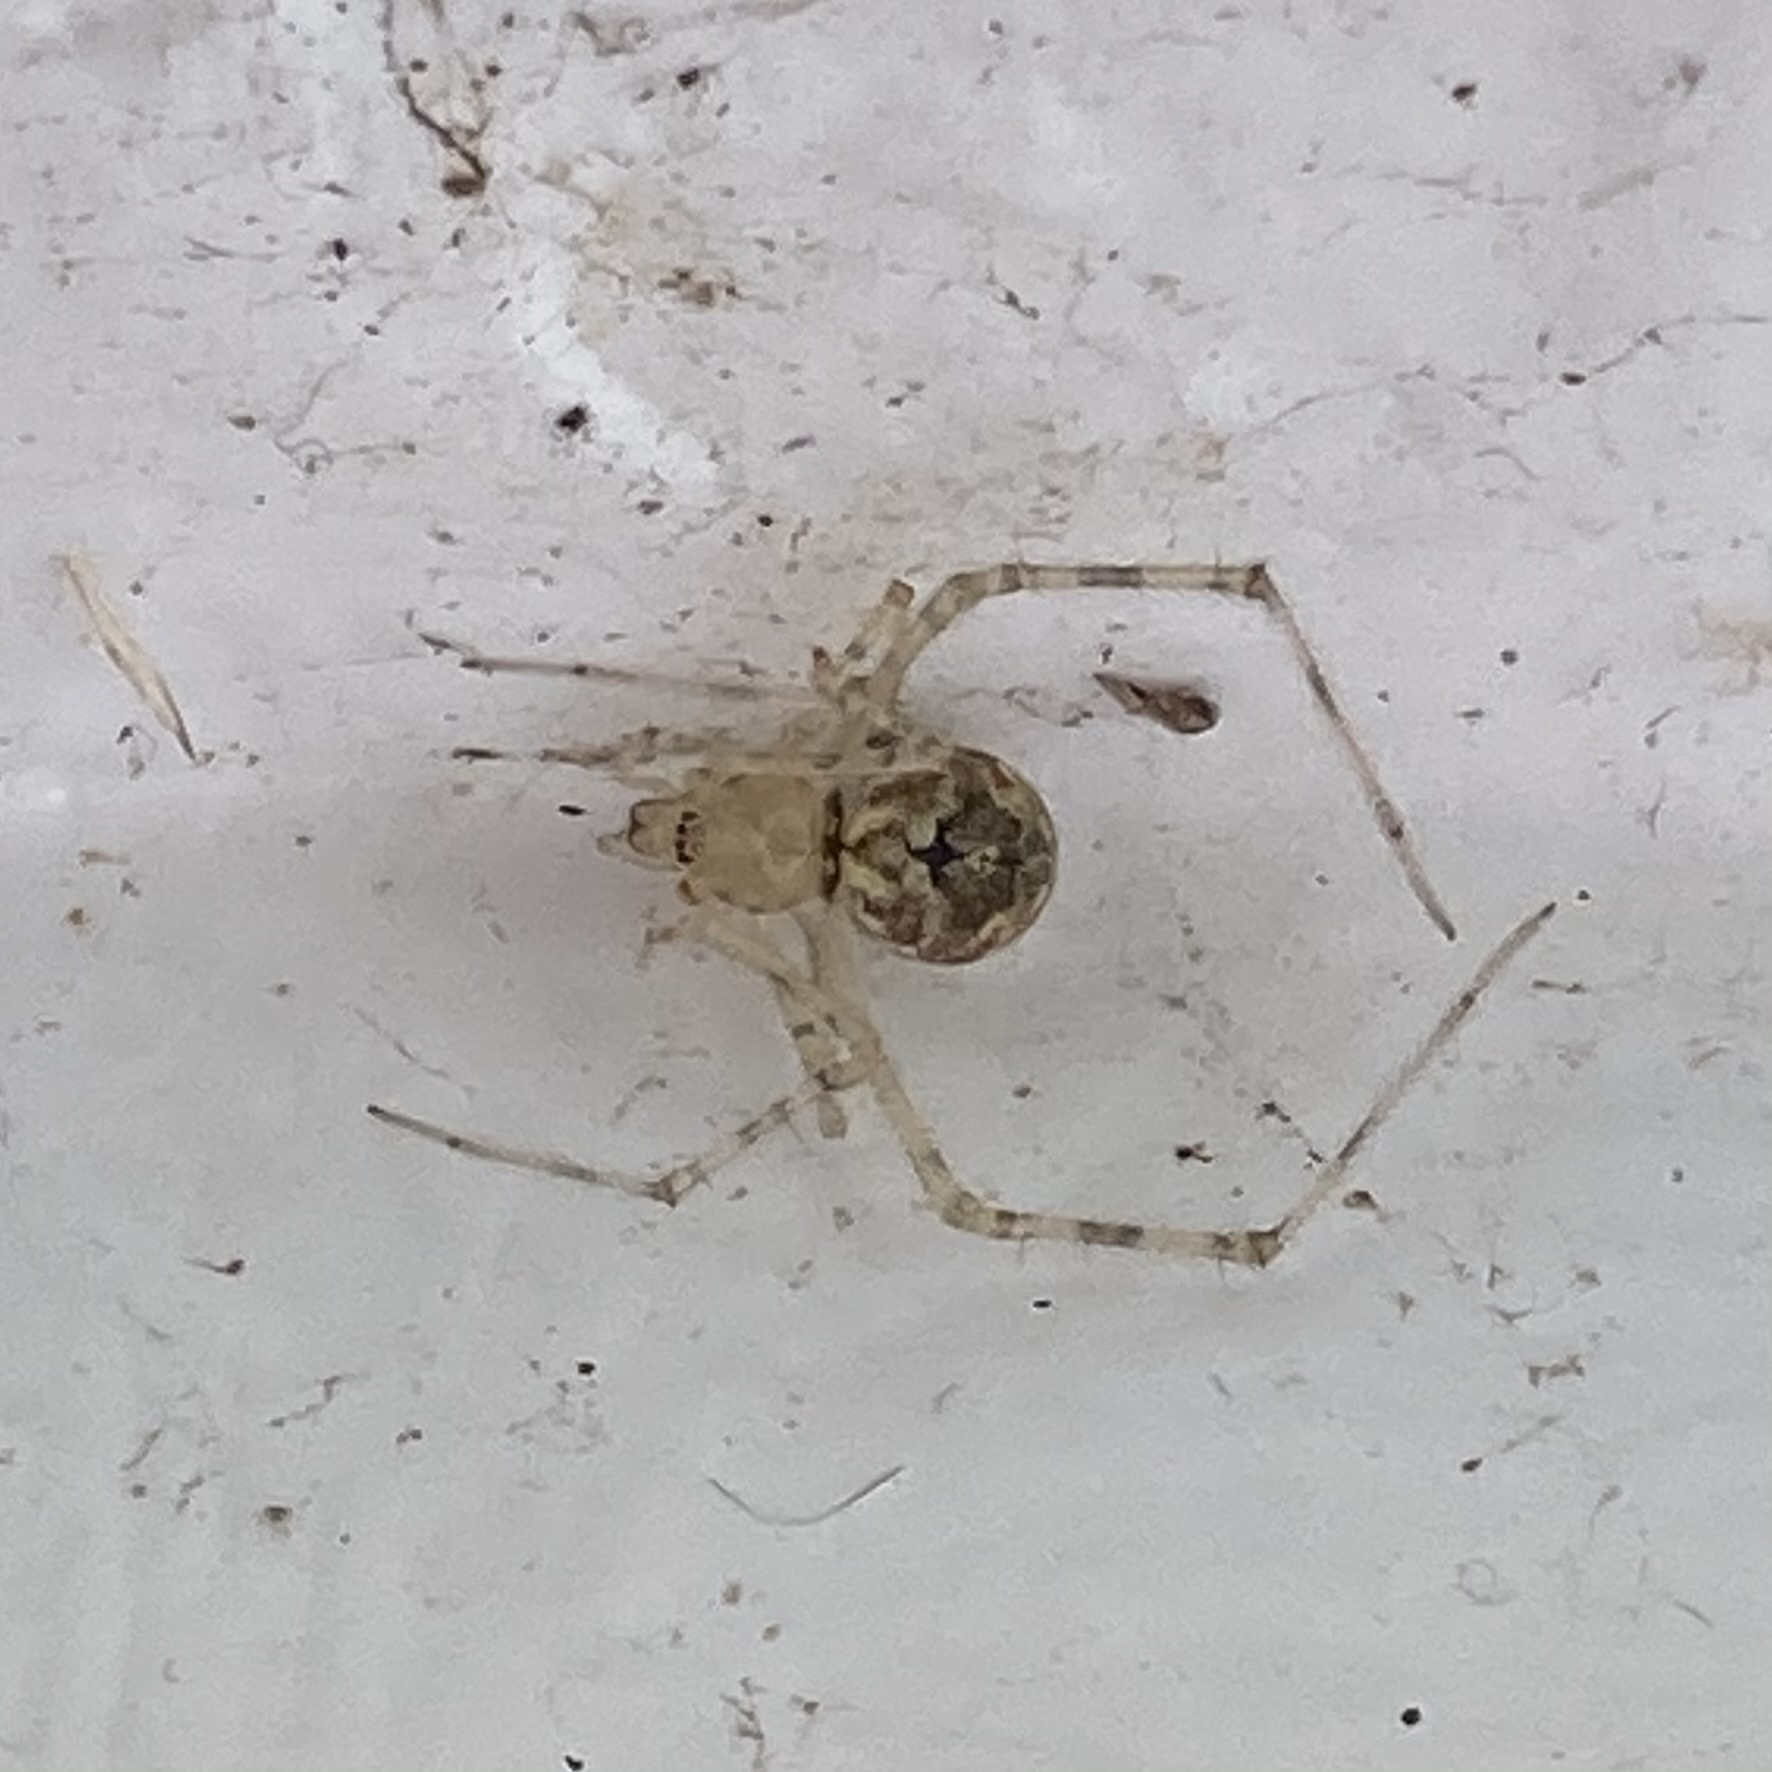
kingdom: Animalia
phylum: Arthropoda
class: Arachnida
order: Araneae
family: Theridiidae
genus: Cryptachaea
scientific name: Cryptachaea gigantipes
